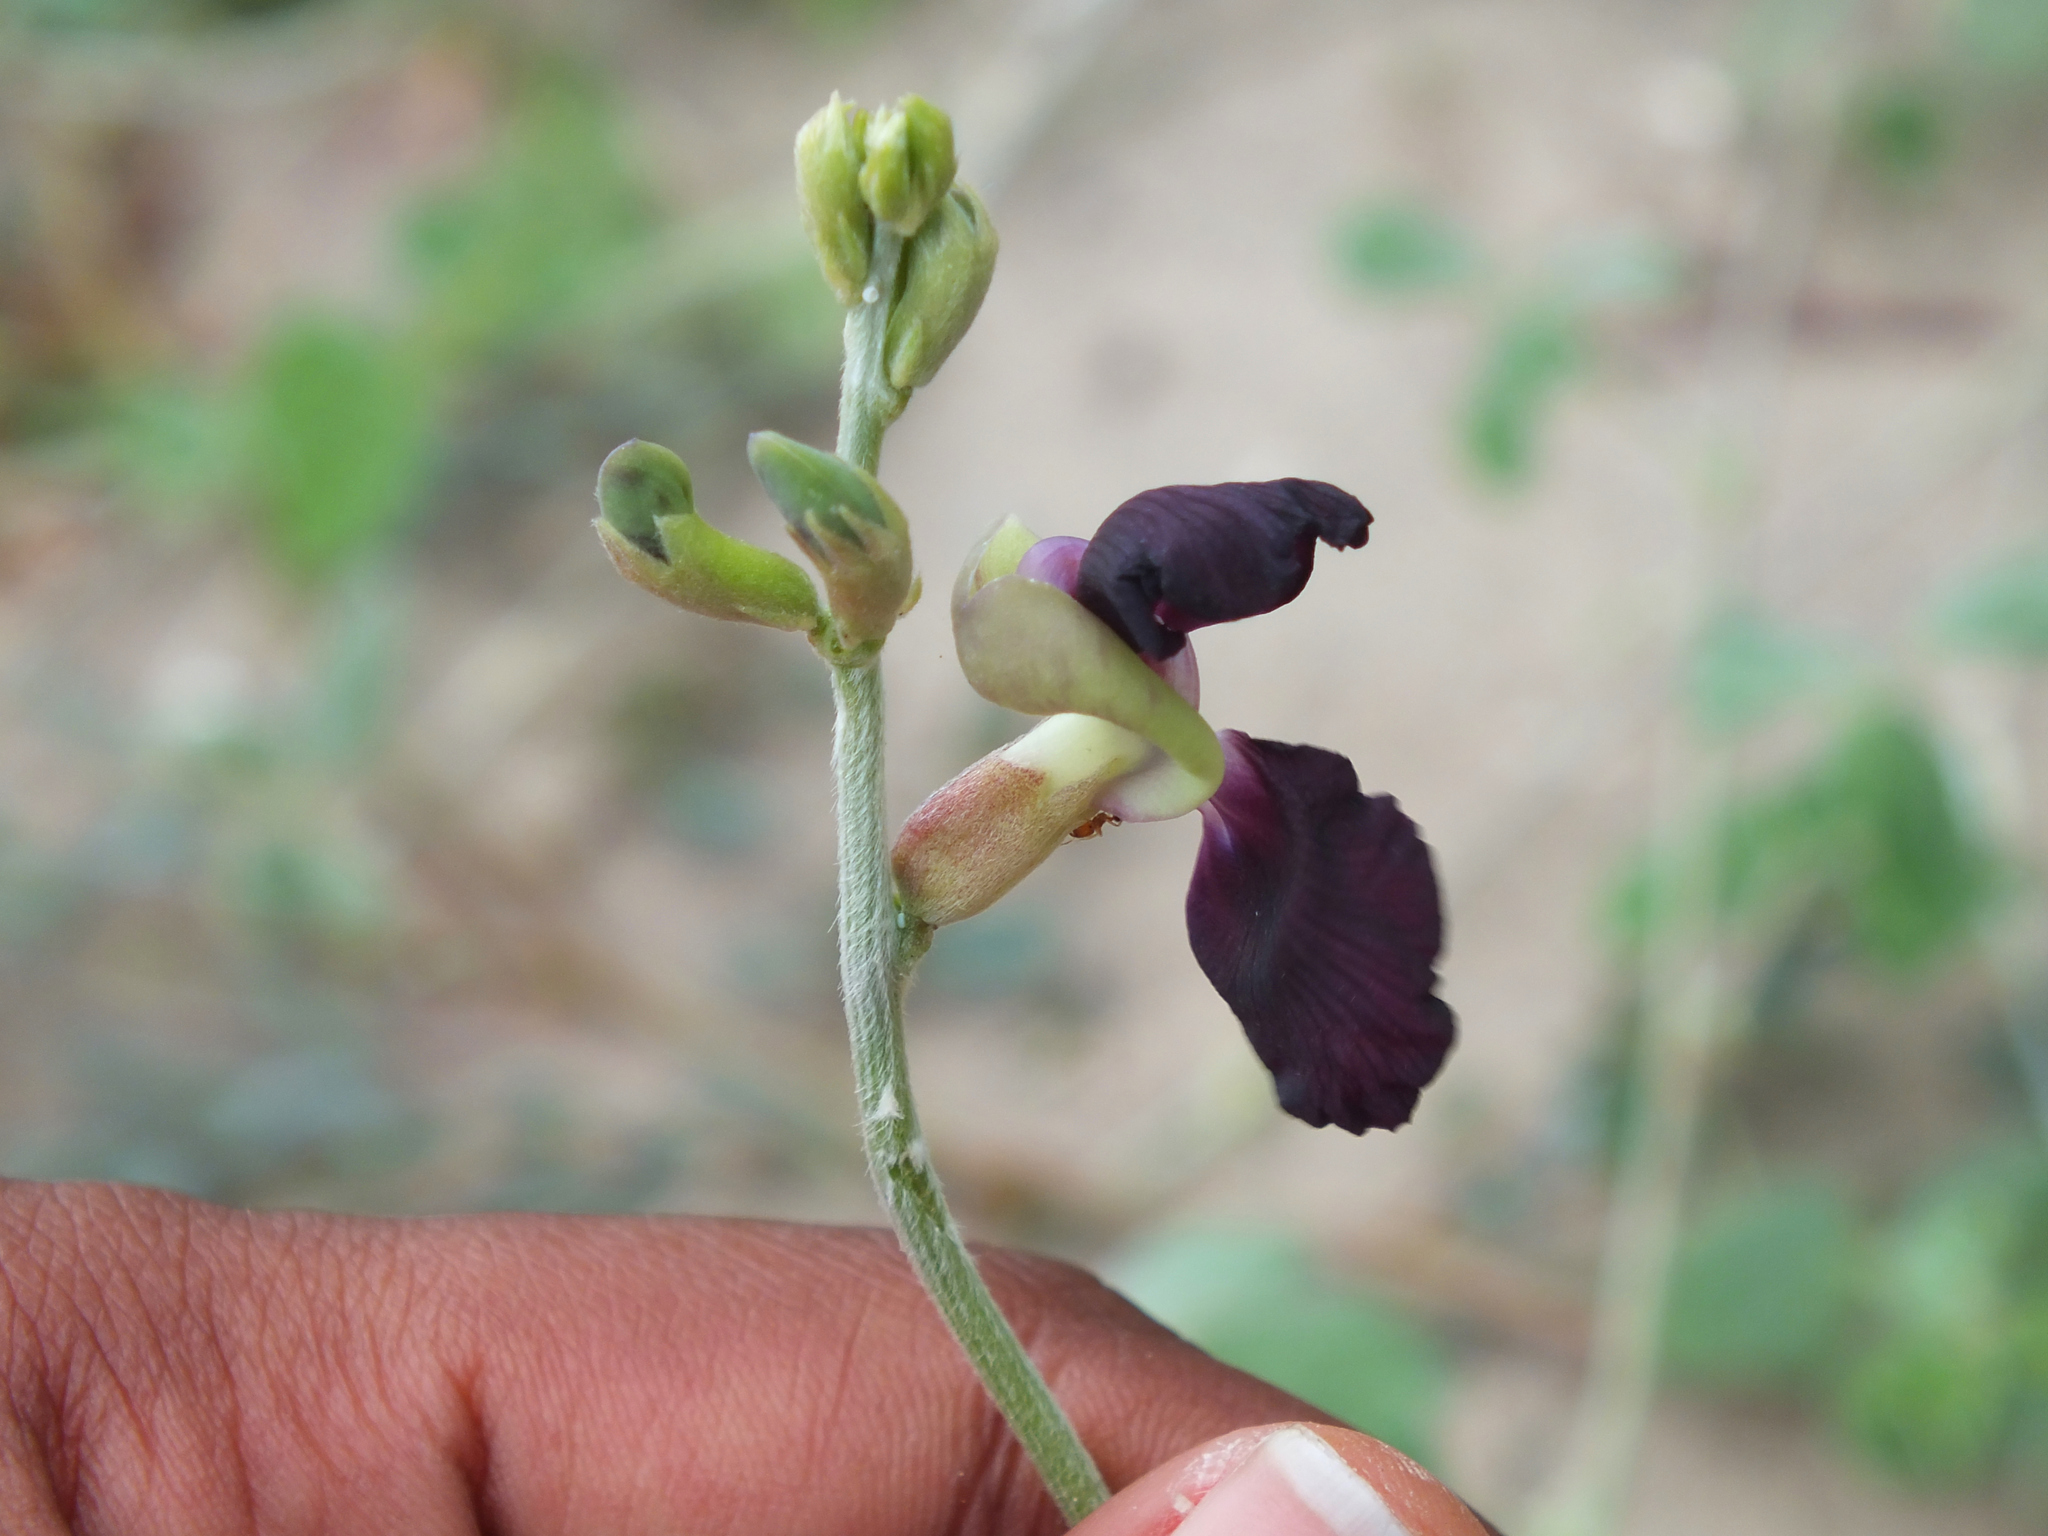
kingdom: Plantae
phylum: Tracheophyta
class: Magnoliopsida
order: Fabales
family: Fabaceae
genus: Macroptilium
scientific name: Macroptilium atropurpureum
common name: Purple bushbean
